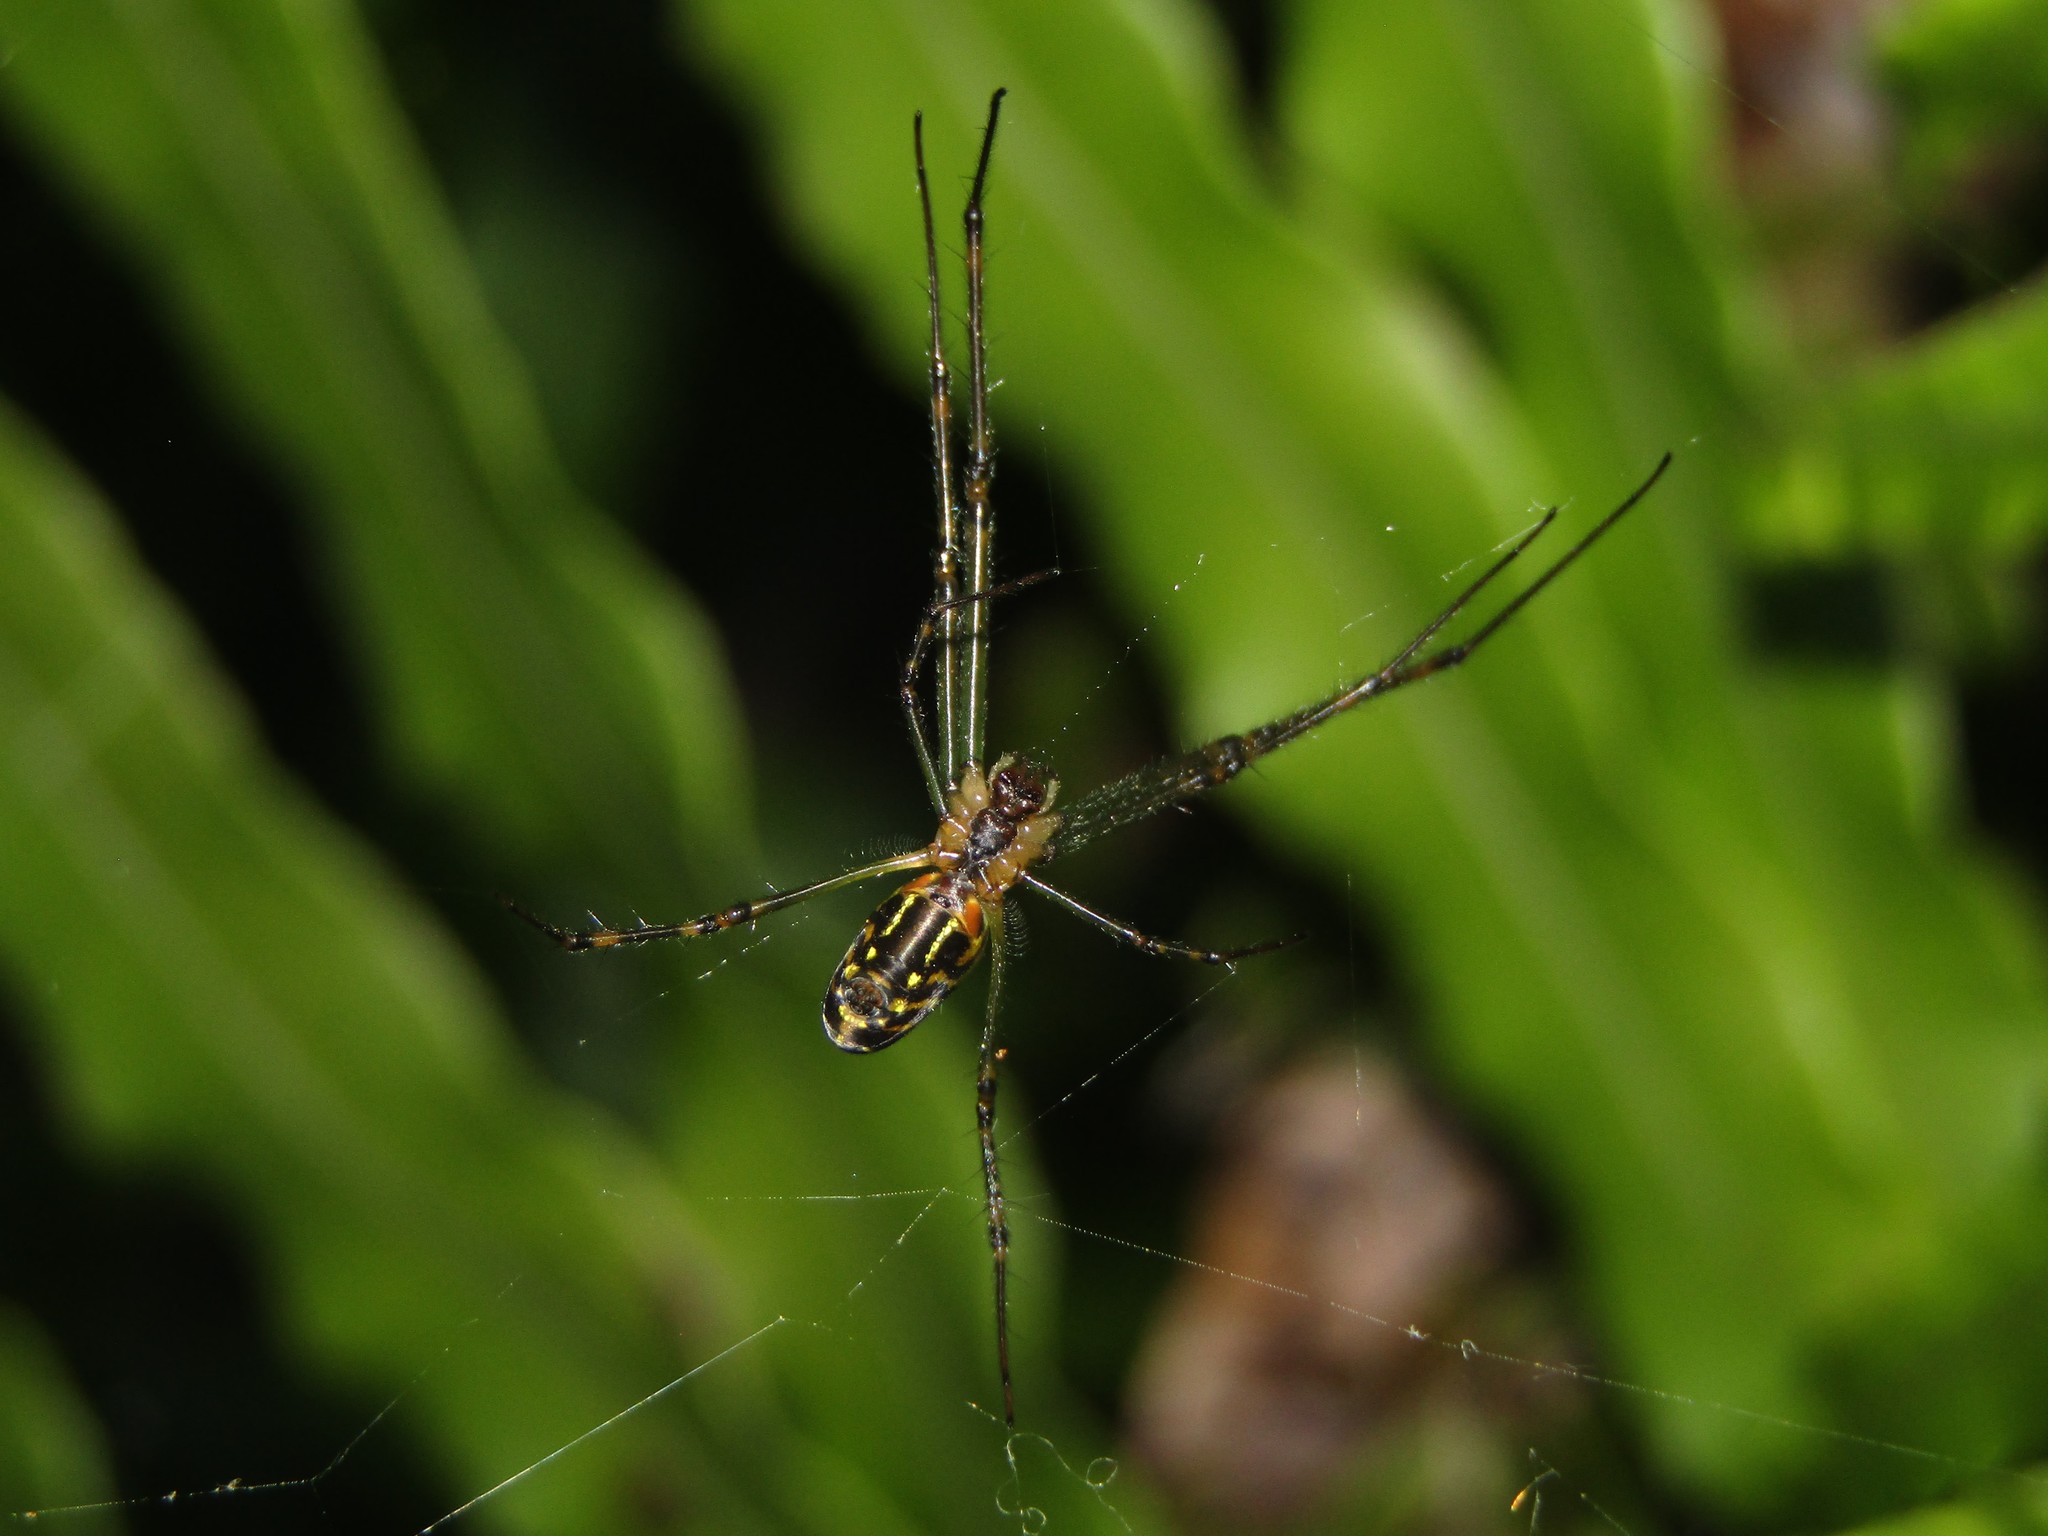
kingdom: Animalia
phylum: Arthropoda
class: Arachnida
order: Araneae
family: Tetragnathidae
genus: Leucauge
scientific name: Leucauge dromedaria
